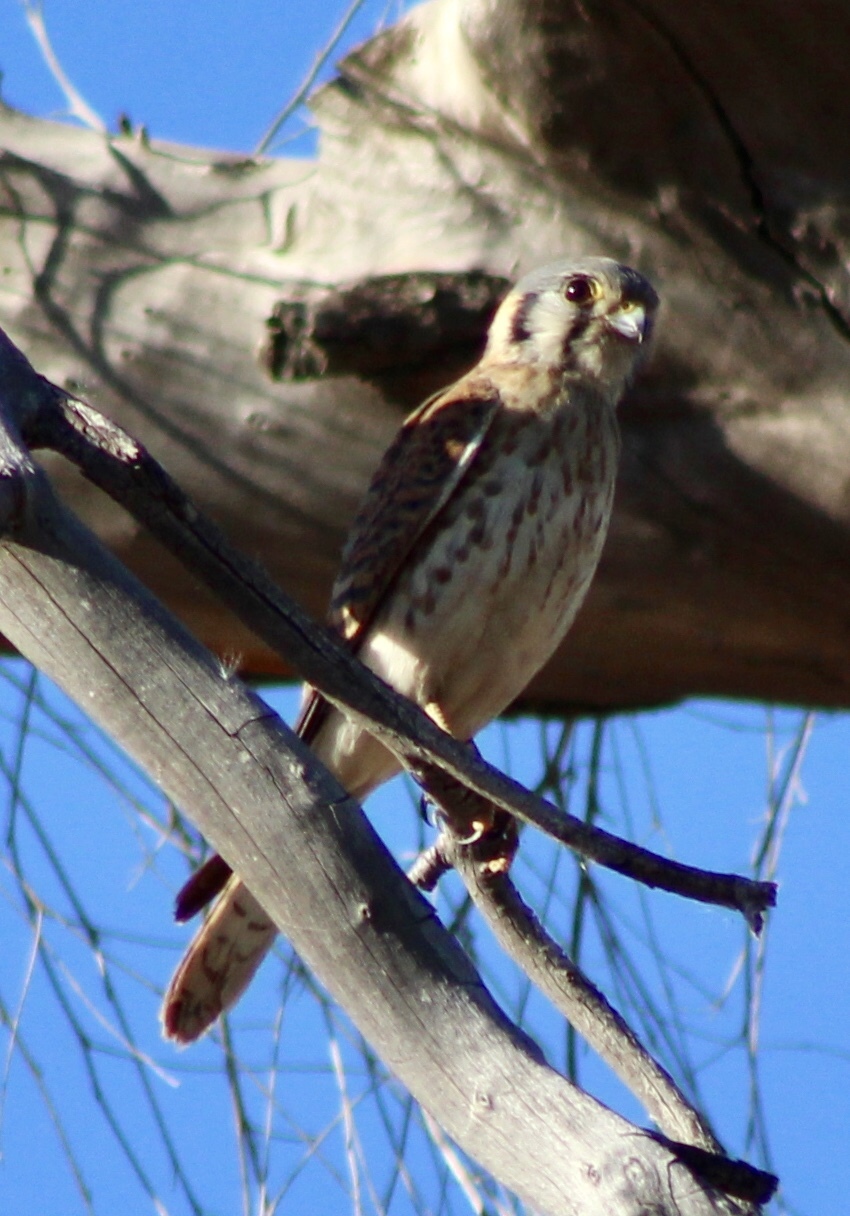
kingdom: Animalia
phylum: Chordata
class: Aves
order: Falconiformes
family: Falconidae
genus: Falco
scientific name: Falco sparverius
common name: American kestrel
